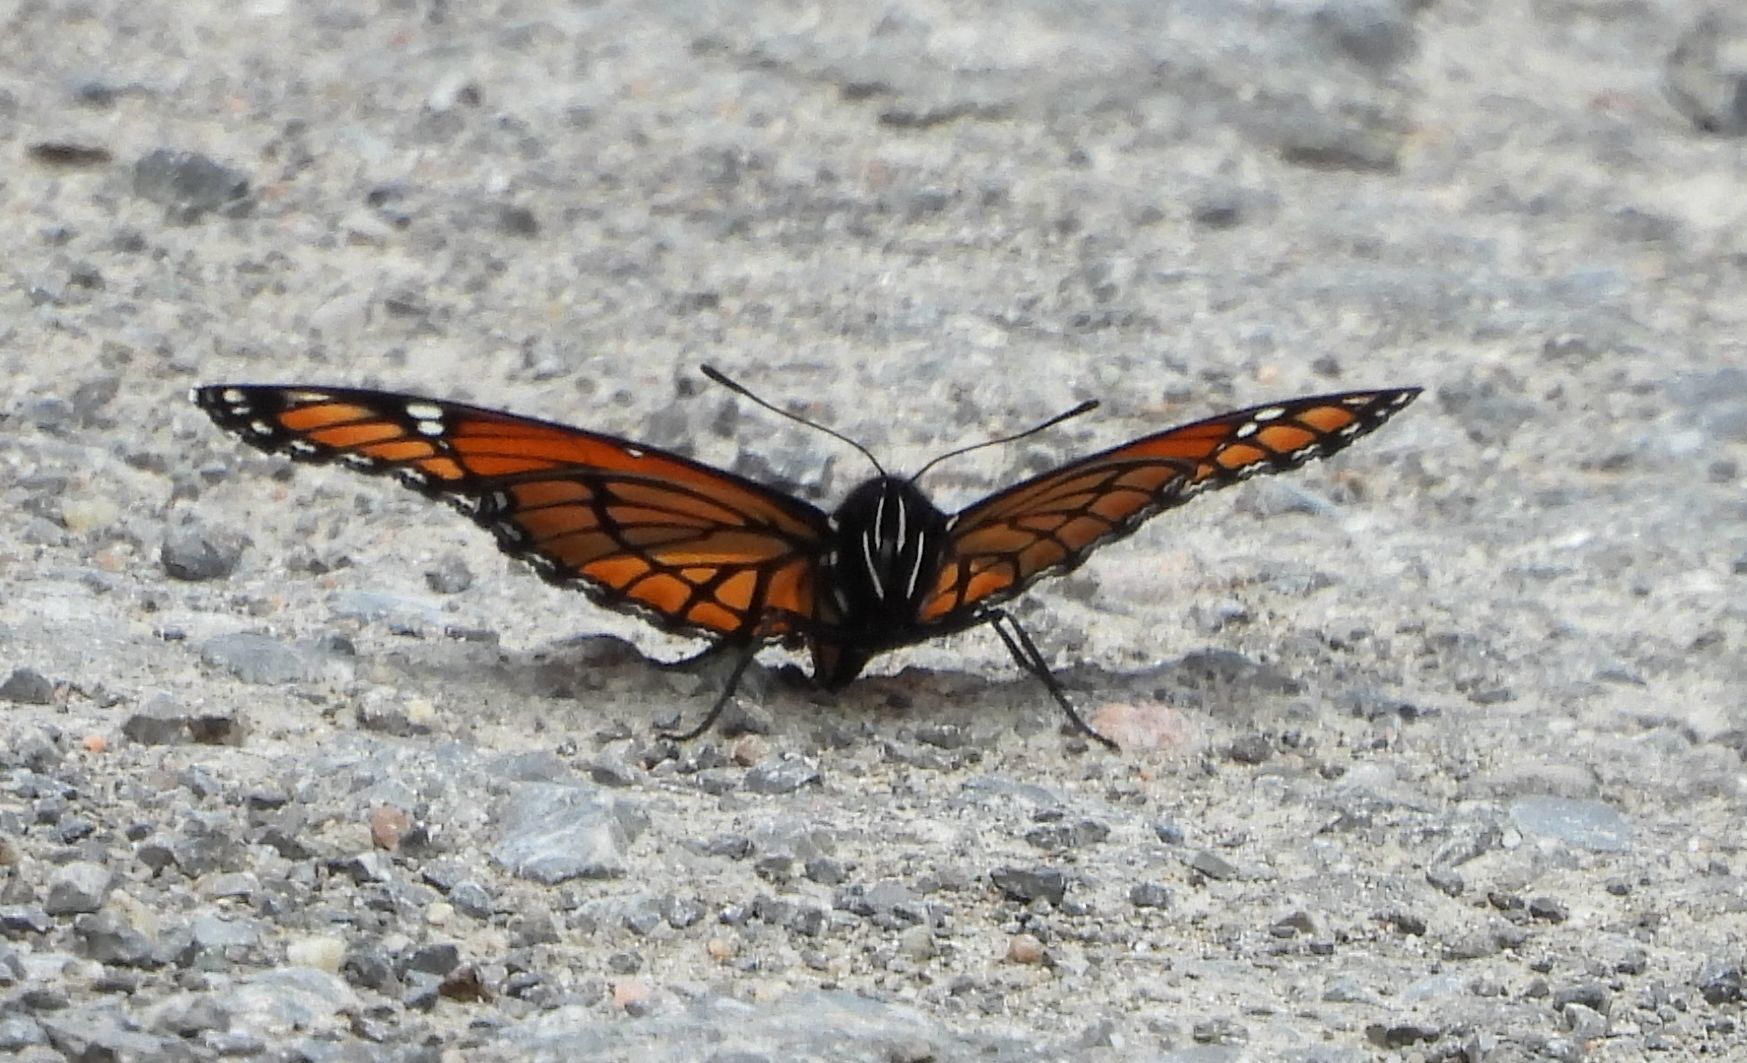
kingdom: Animalia
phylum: Arthropoda
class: Insecta
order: Lepidoptera
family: Nymphalidae
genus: Limenitis
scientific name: Limenitis archippus
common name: Viceroy
